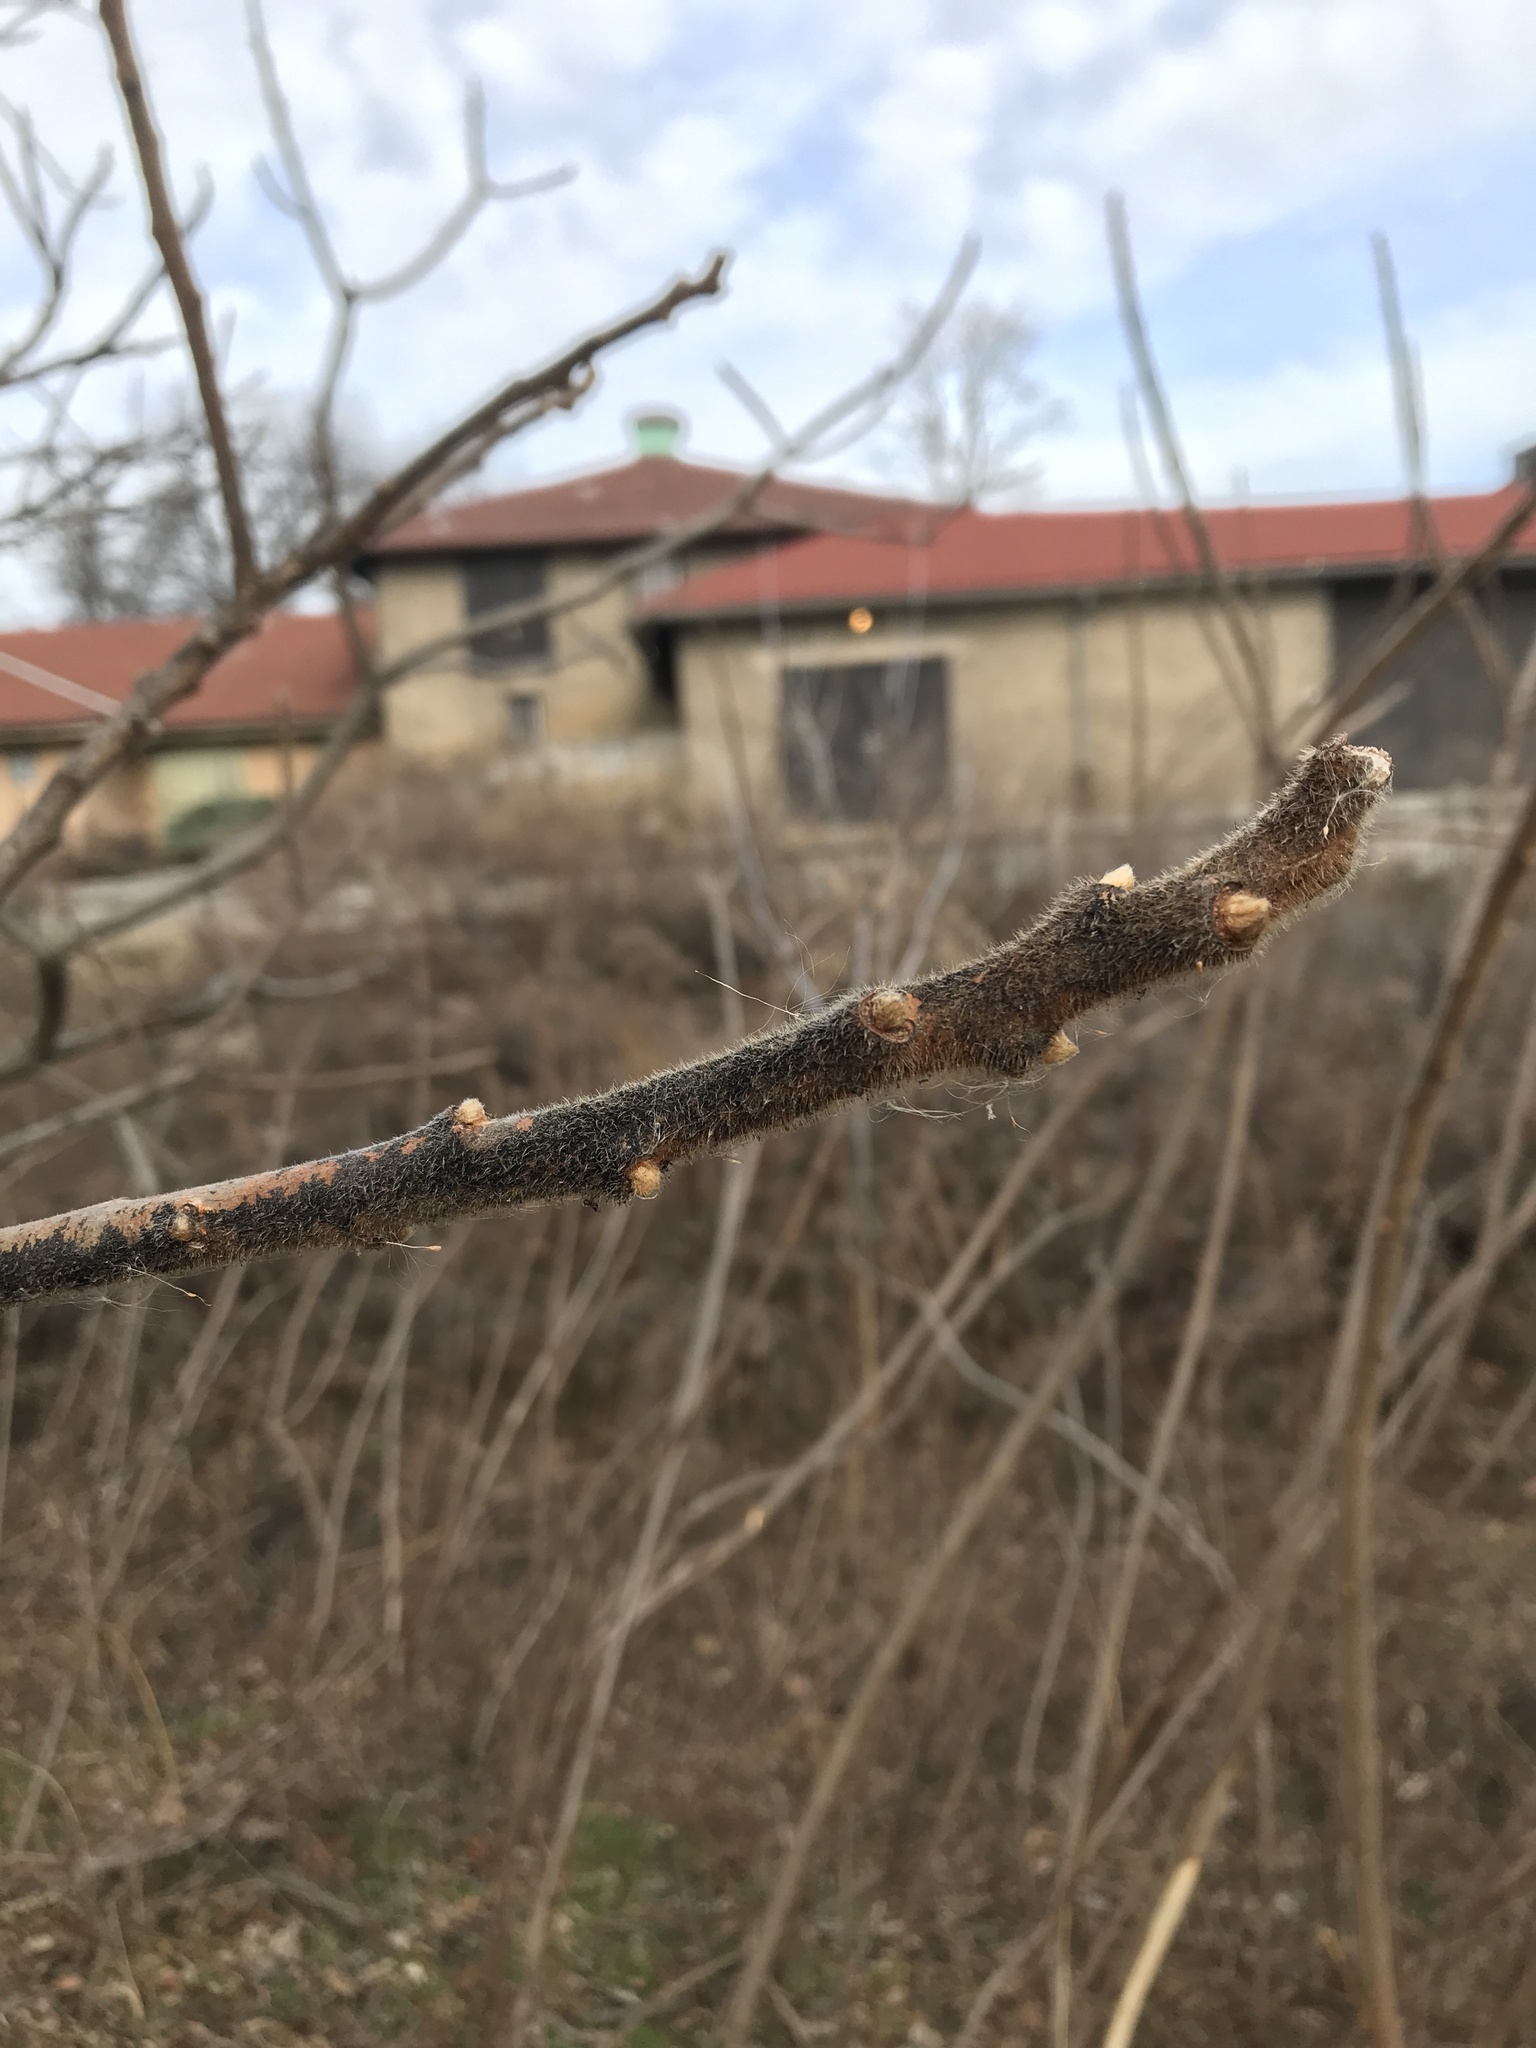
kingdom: Plantae
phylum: Tracheophyta
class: Magnoliopsida
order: Sapindales
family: Anacardiaceae
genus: Rhus
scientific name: Rhus typhina
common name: Staghorn sumac
